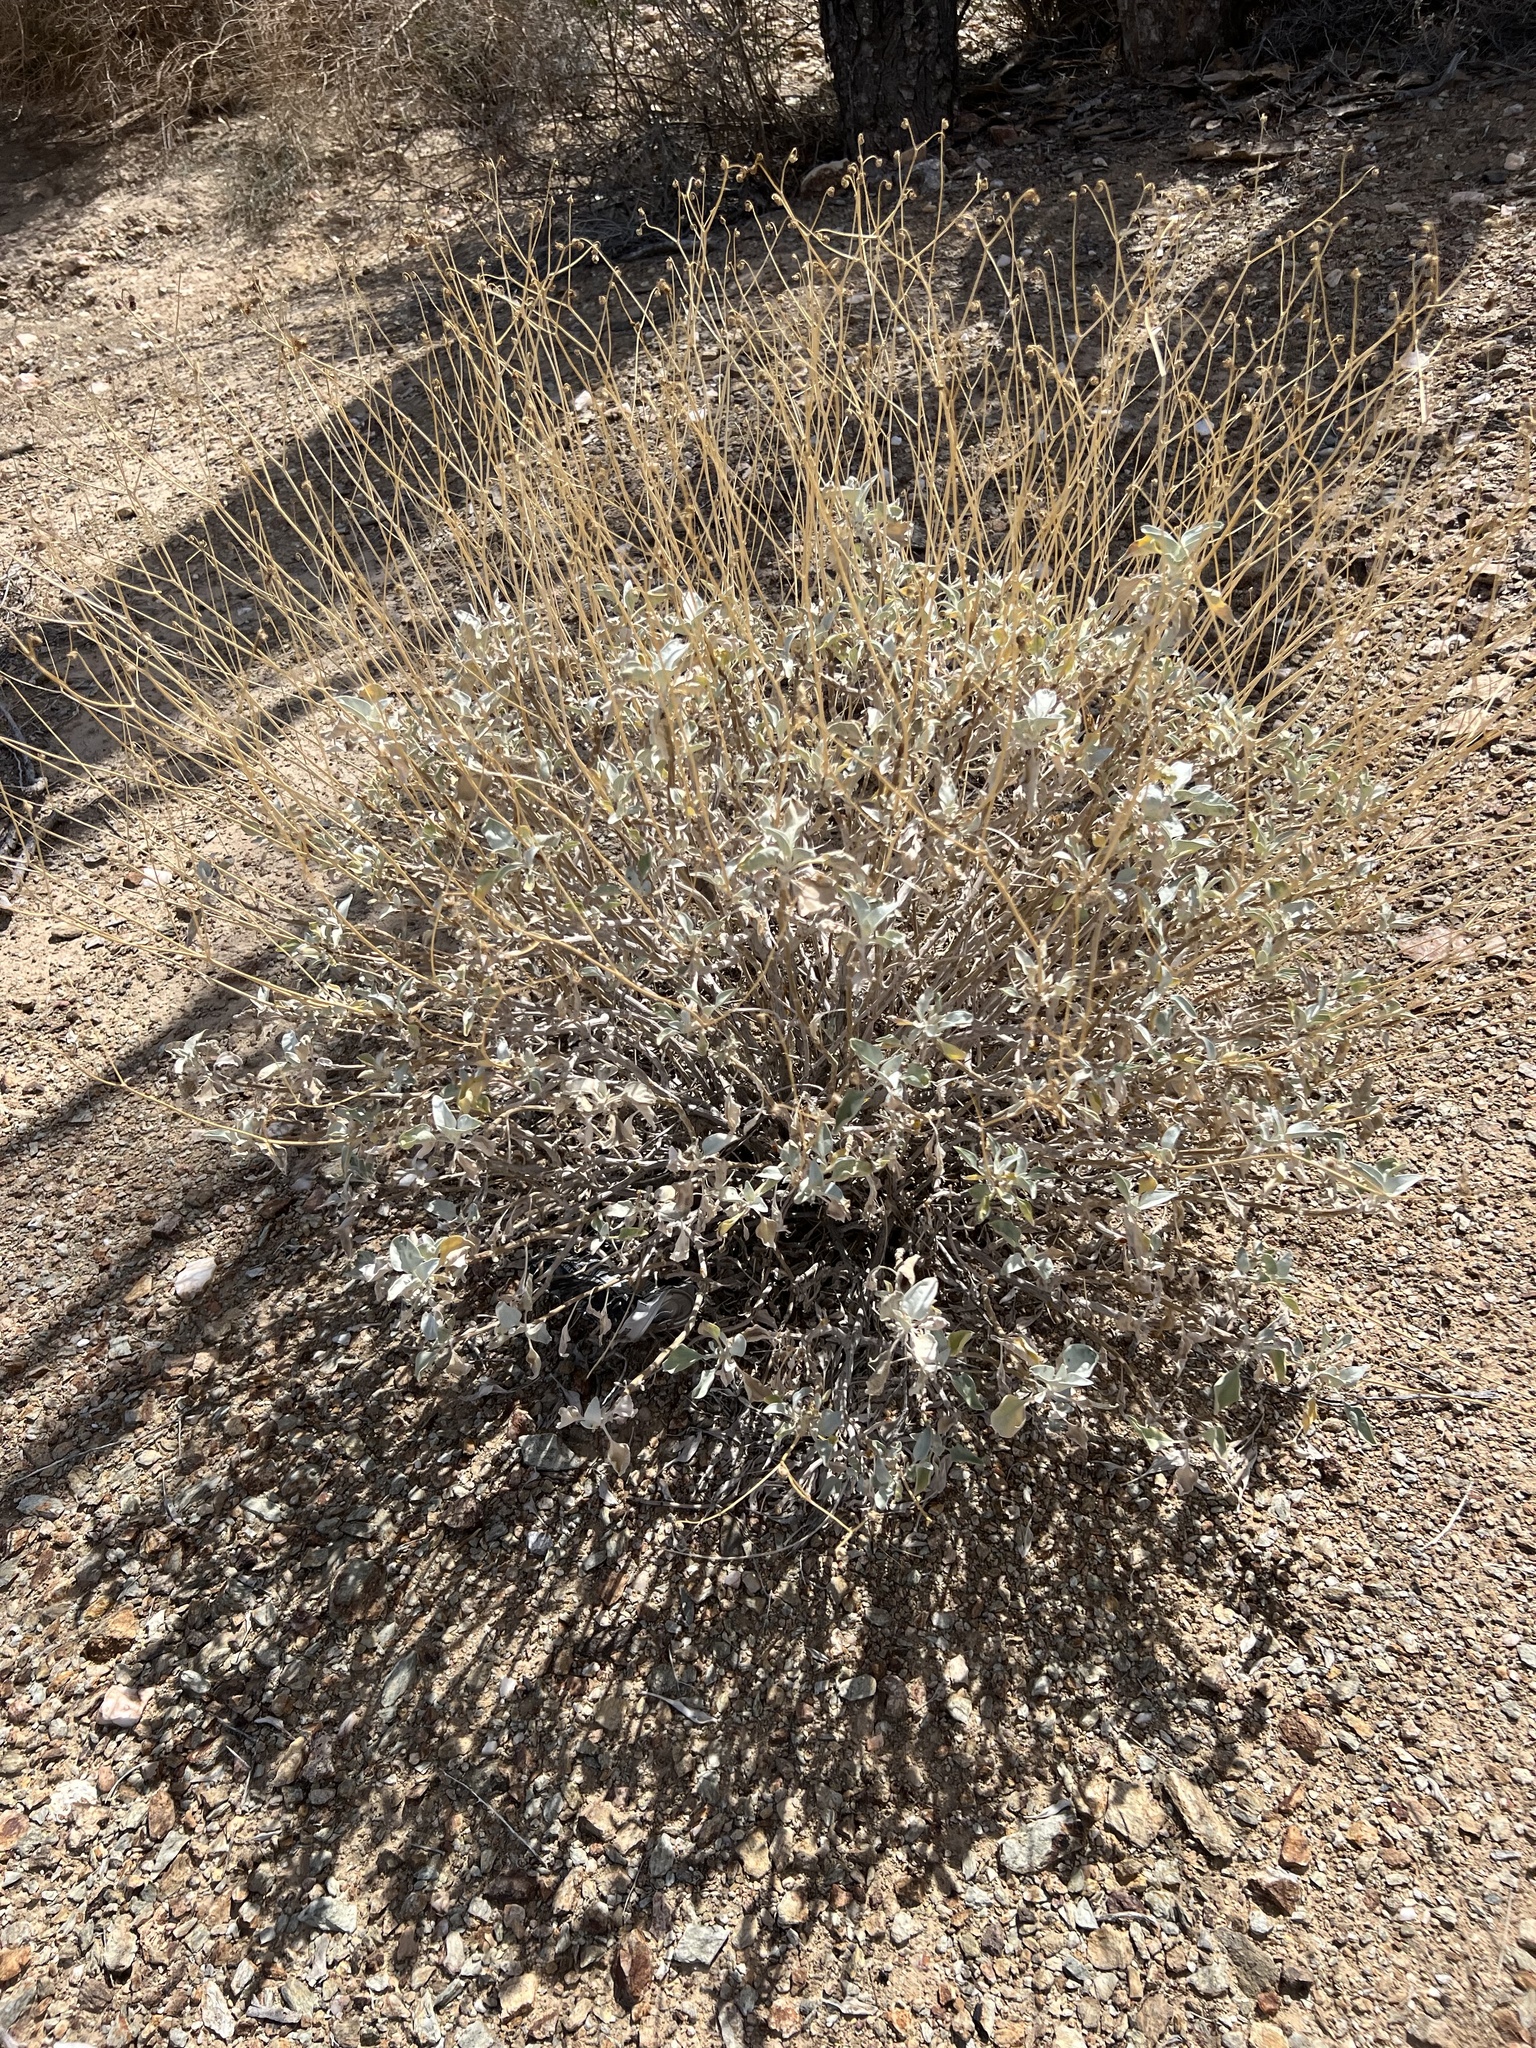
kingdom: Plantae
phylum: Tracheophyta
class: Magnoliopsida
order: Asterales
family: Asteraceae
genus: Encelia
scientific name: Encelia farinosa
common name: Brittlebush
